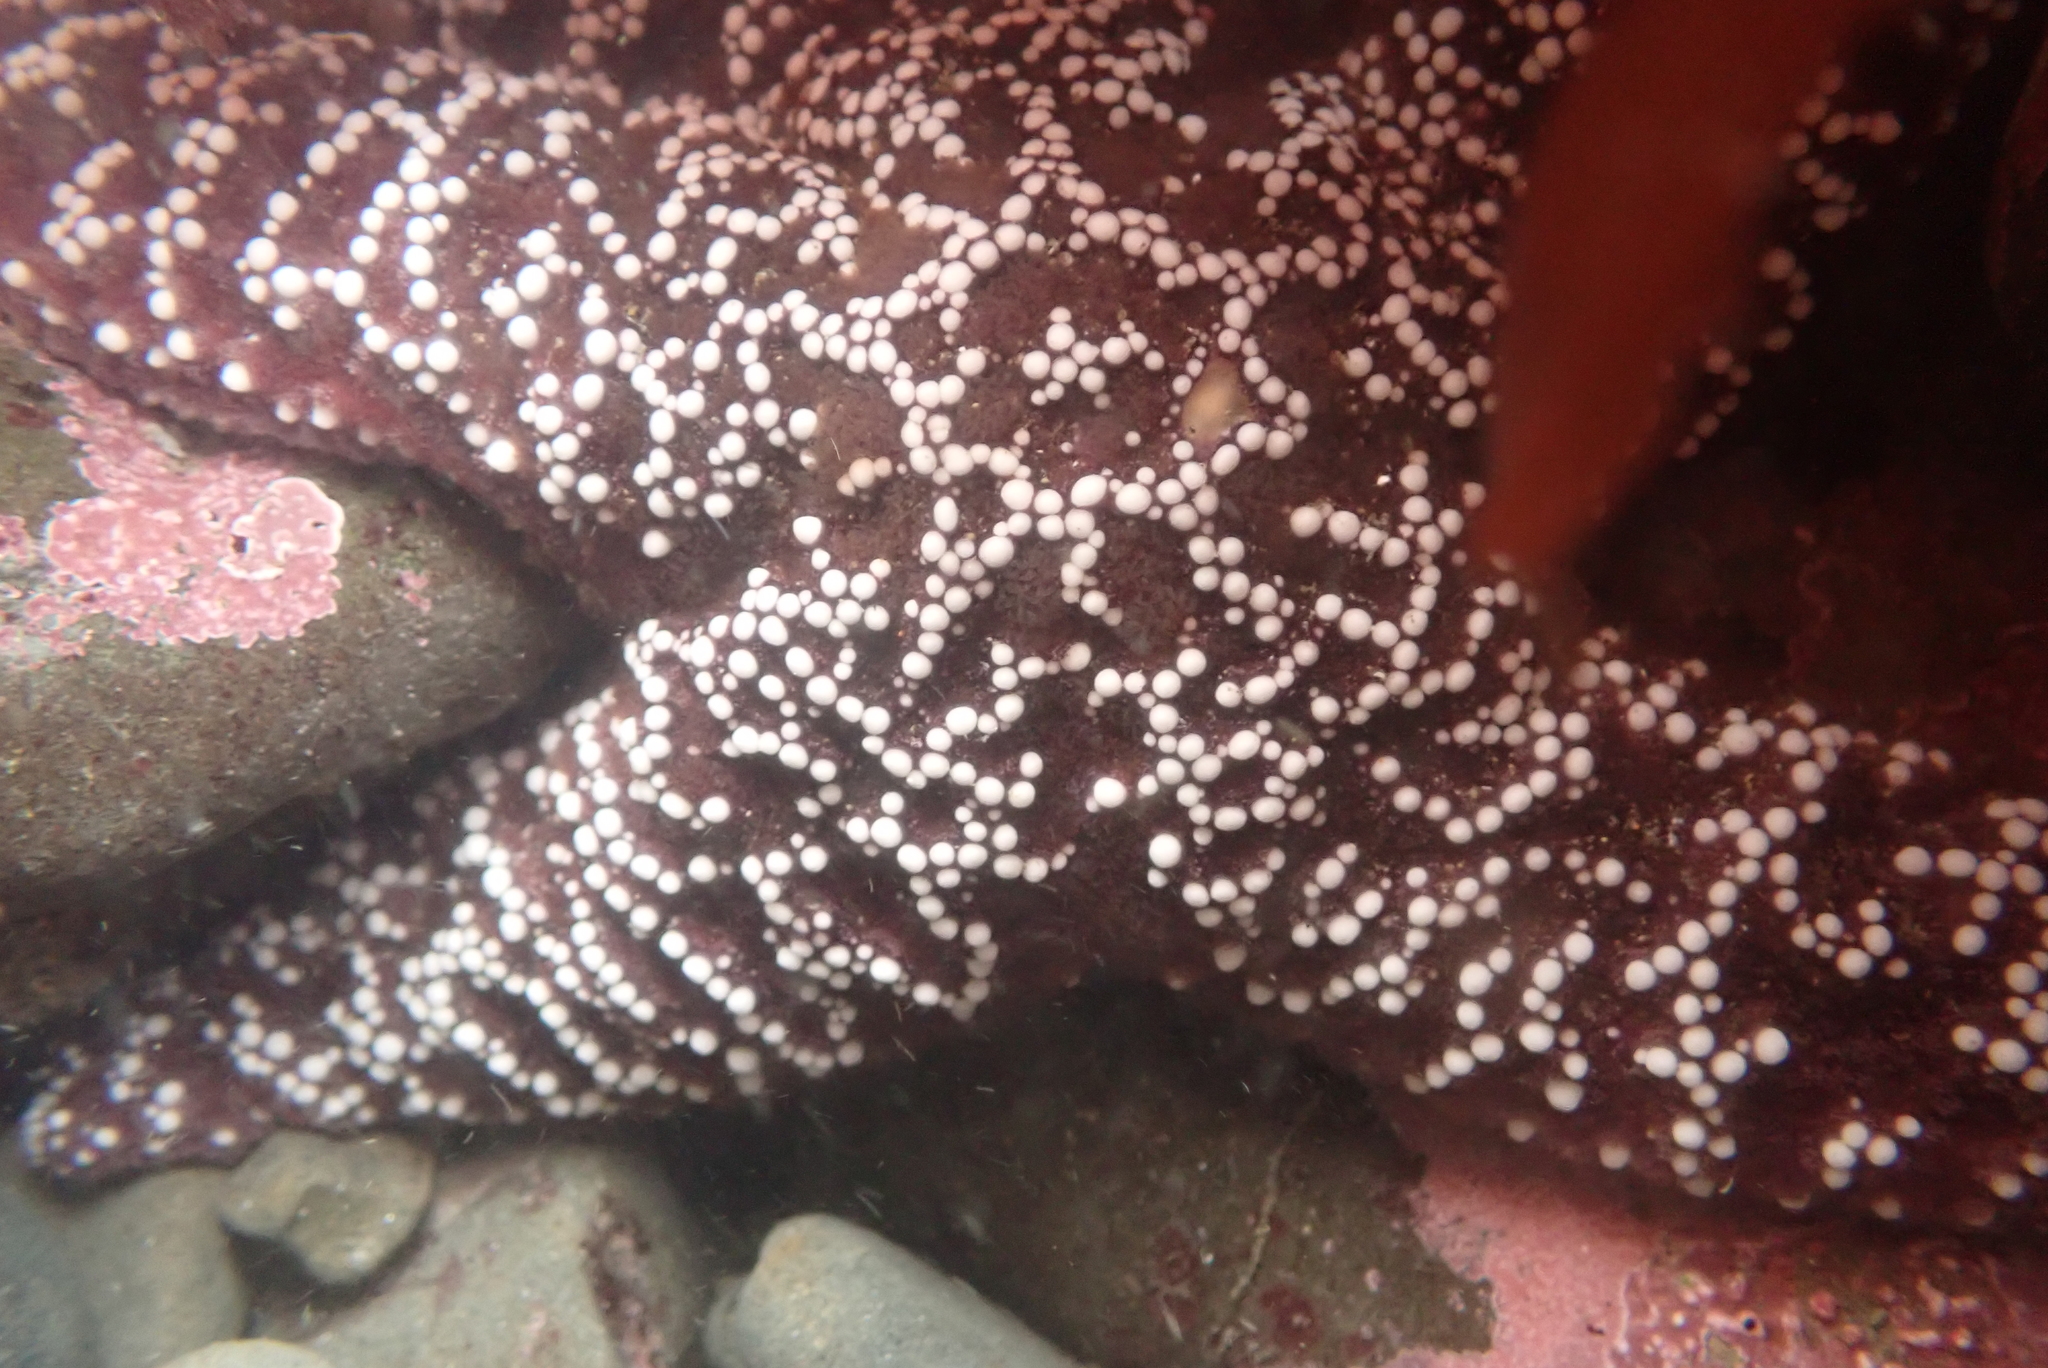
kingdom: Animalia
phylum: Echinodermata
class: Asteroidea
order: Forcipulatida
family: Asteriidae
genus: Pisaster
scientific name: Pisaster ochraceus
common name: Ochre stars
